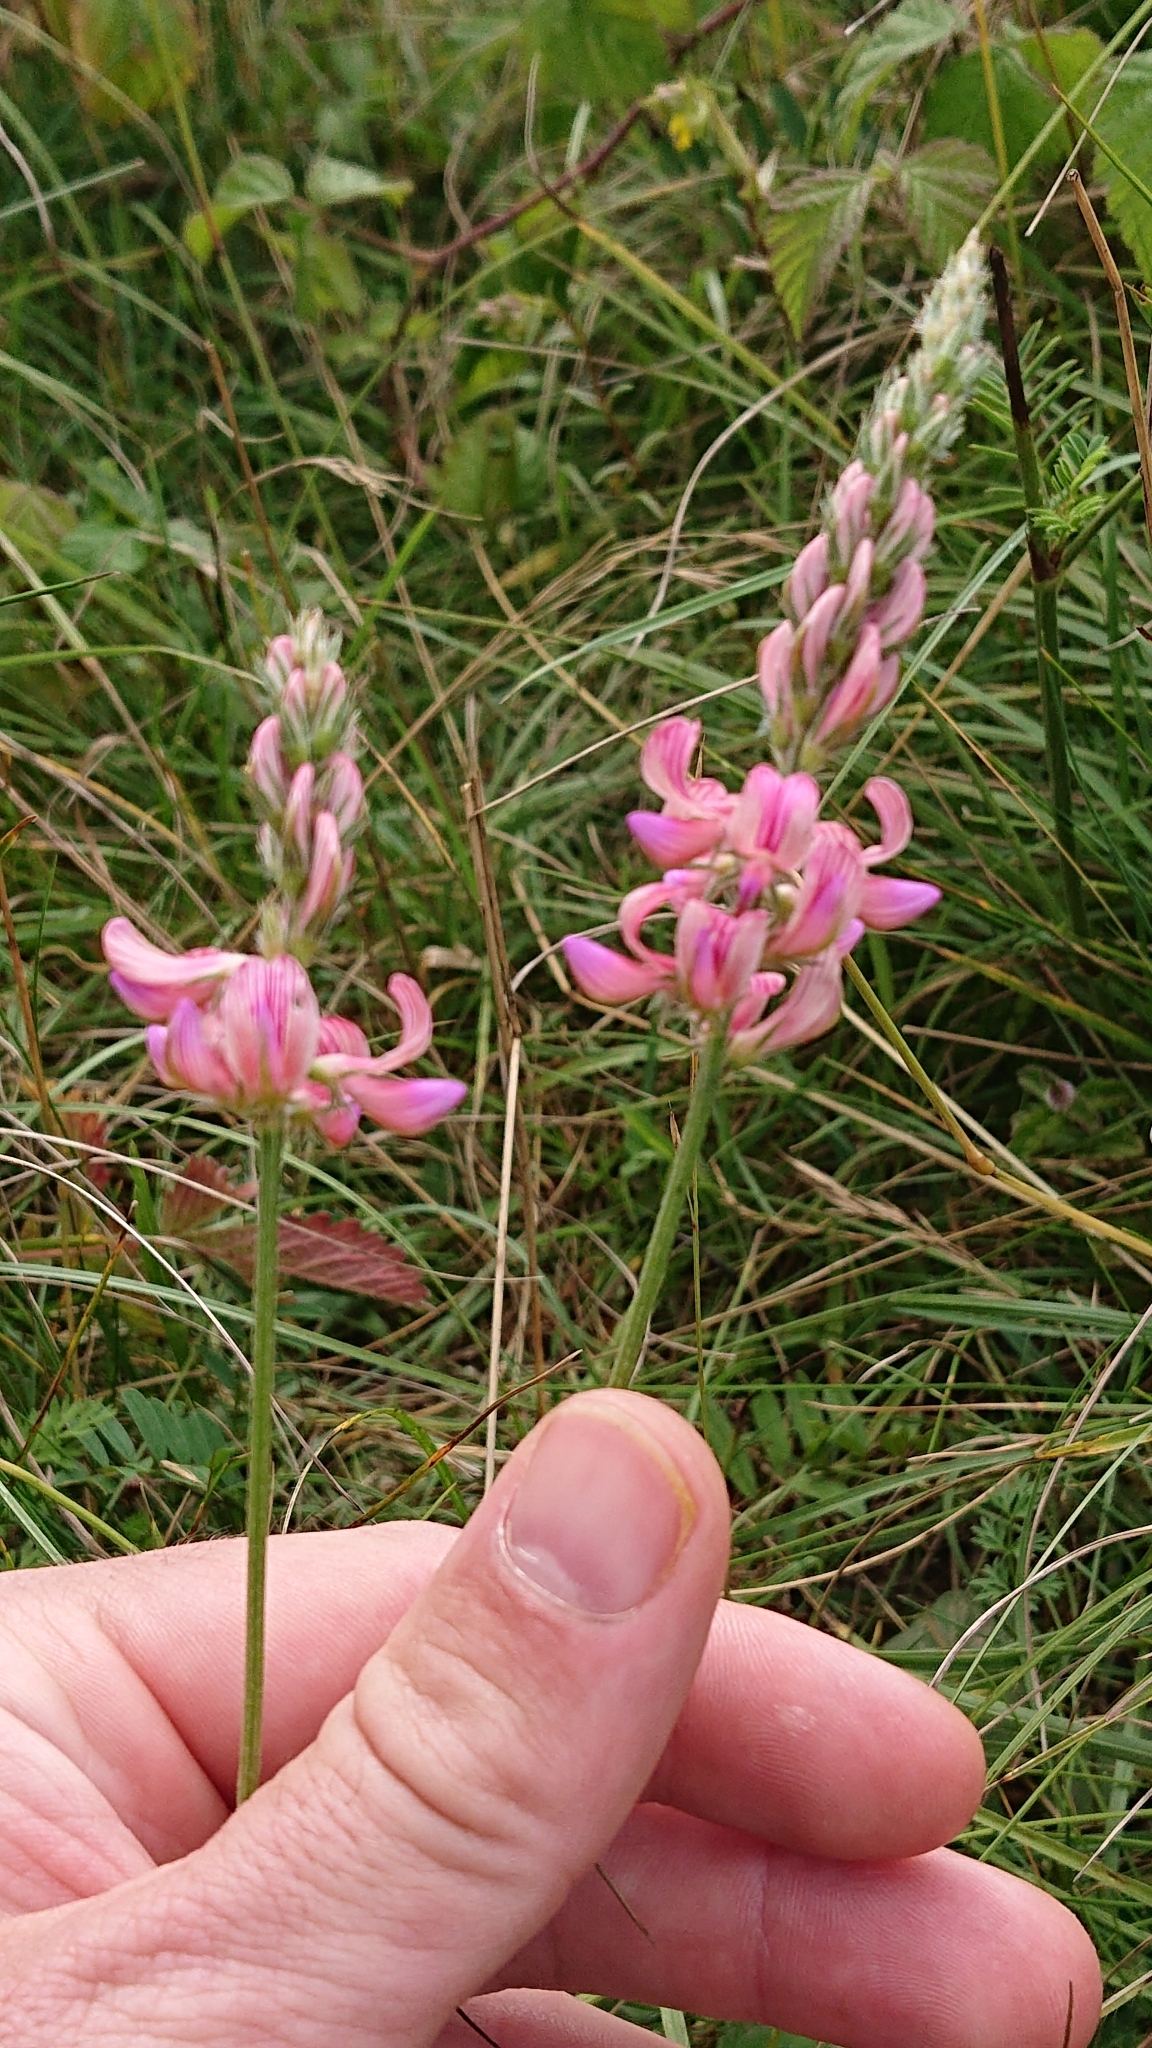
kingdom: Plantae
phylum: Tracheophyta
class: Magnoliopsida
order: Fabales
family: Fabaceae
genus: Onobrychis
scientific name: Onobrychis viciifolia
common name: Sainfoin
